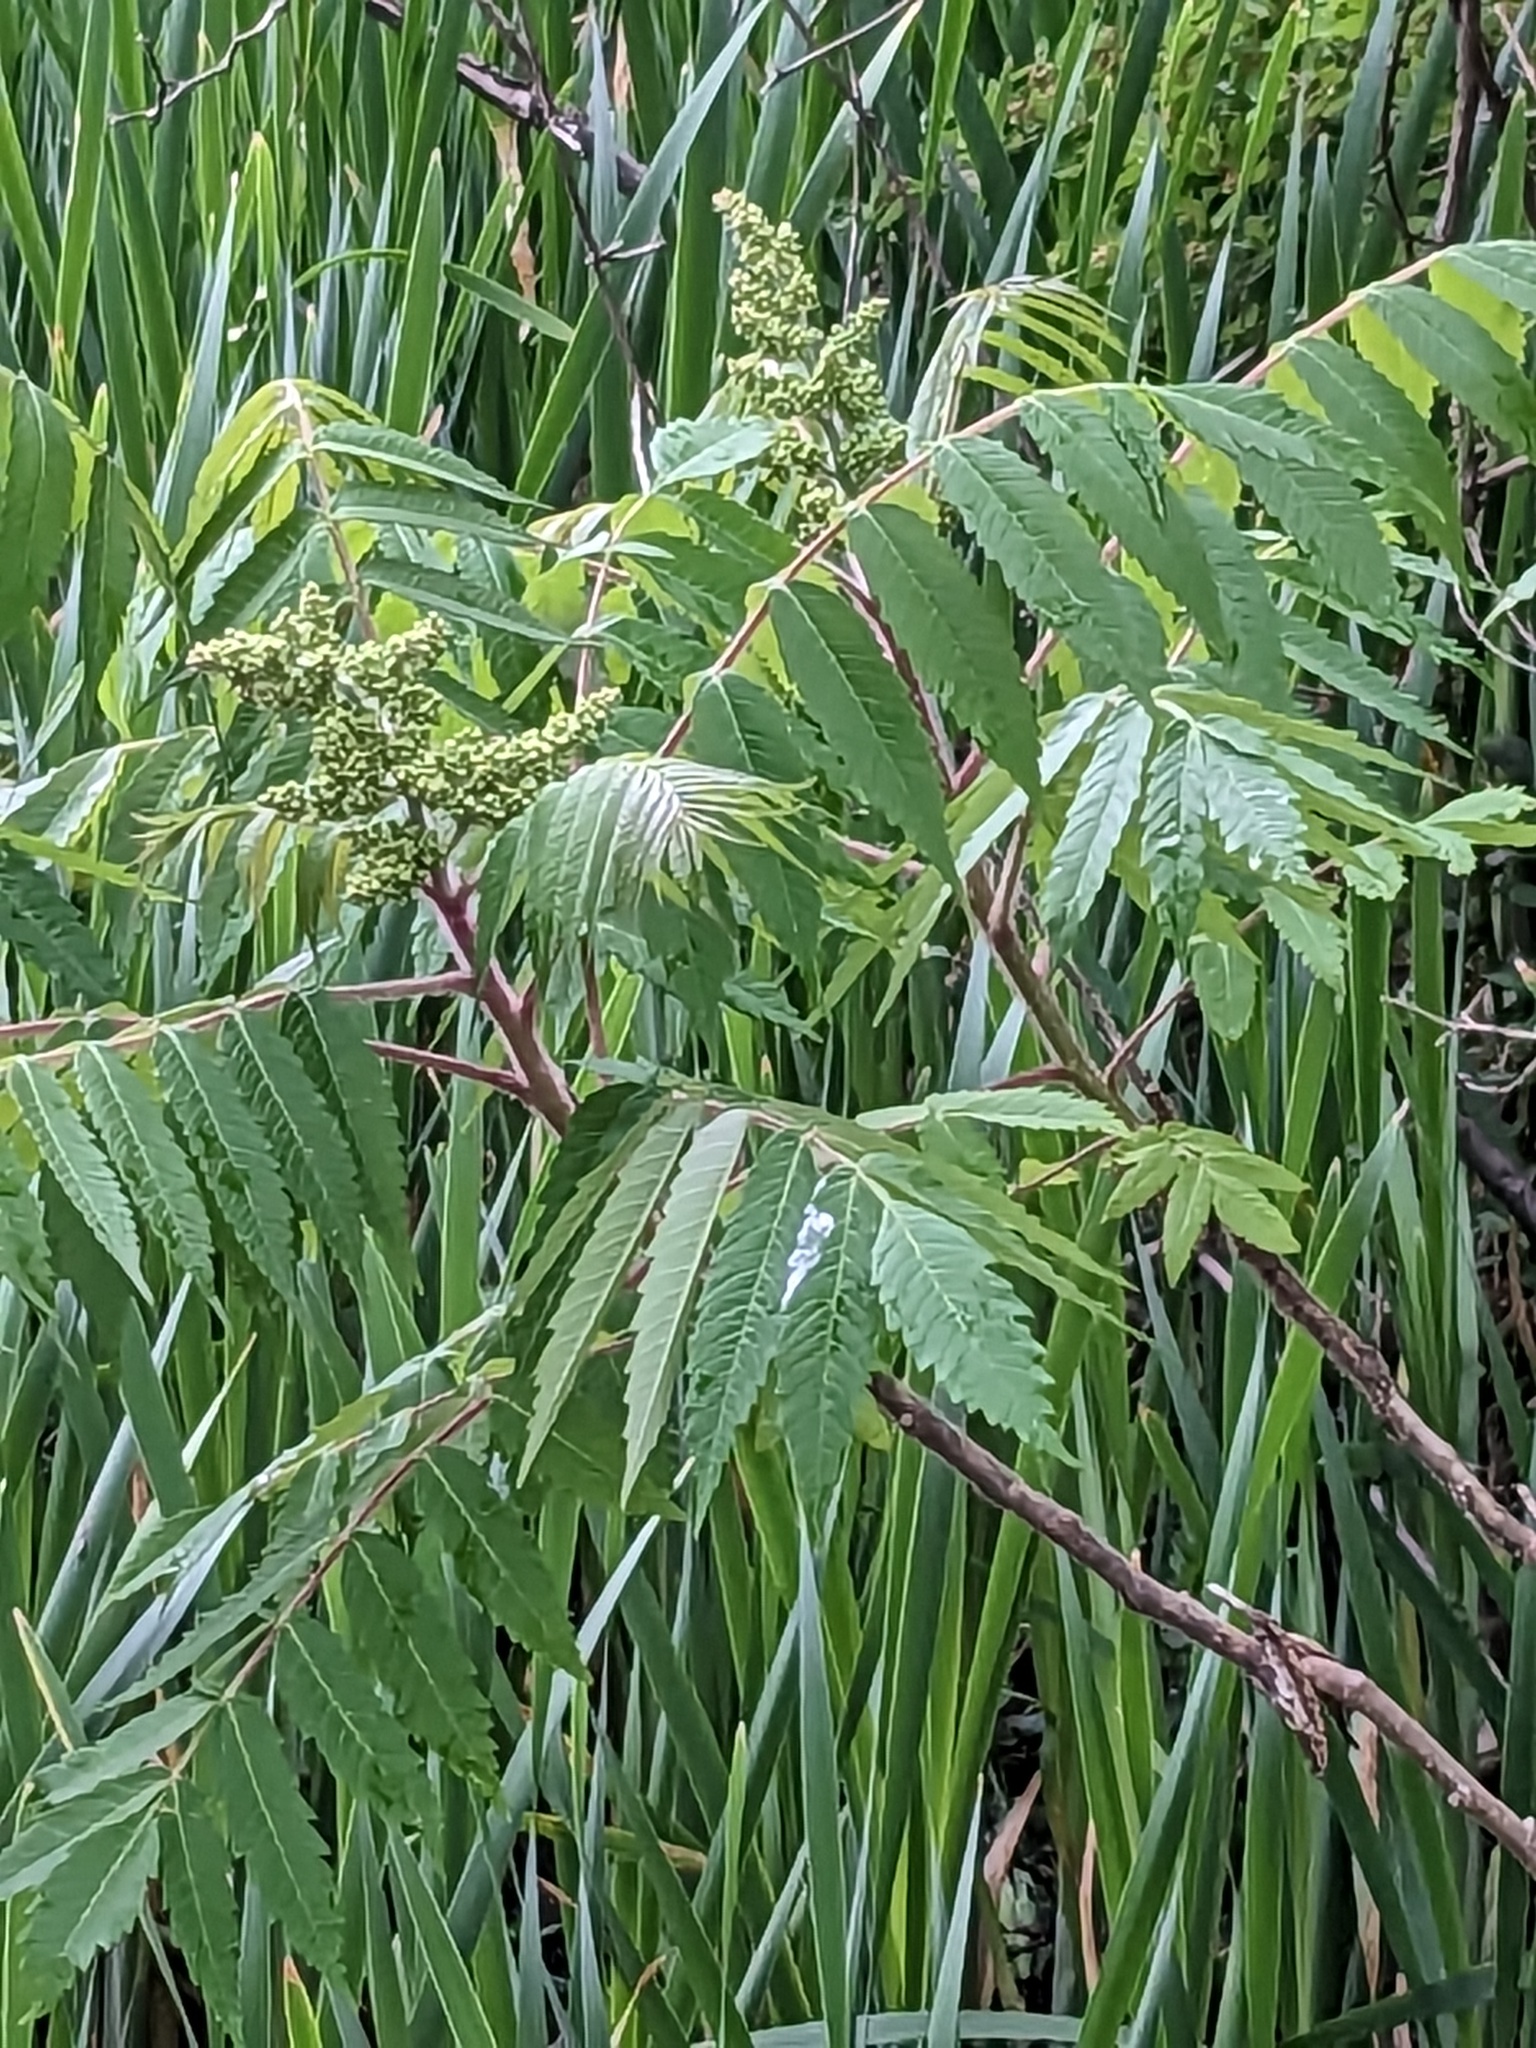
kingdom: Plantae
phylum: Tracheophyta
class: Magnoliopsida
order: Sapindales
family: Anacardiaceae
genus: Rhus
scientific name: Rhus typhina
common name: Staghorn sumac
